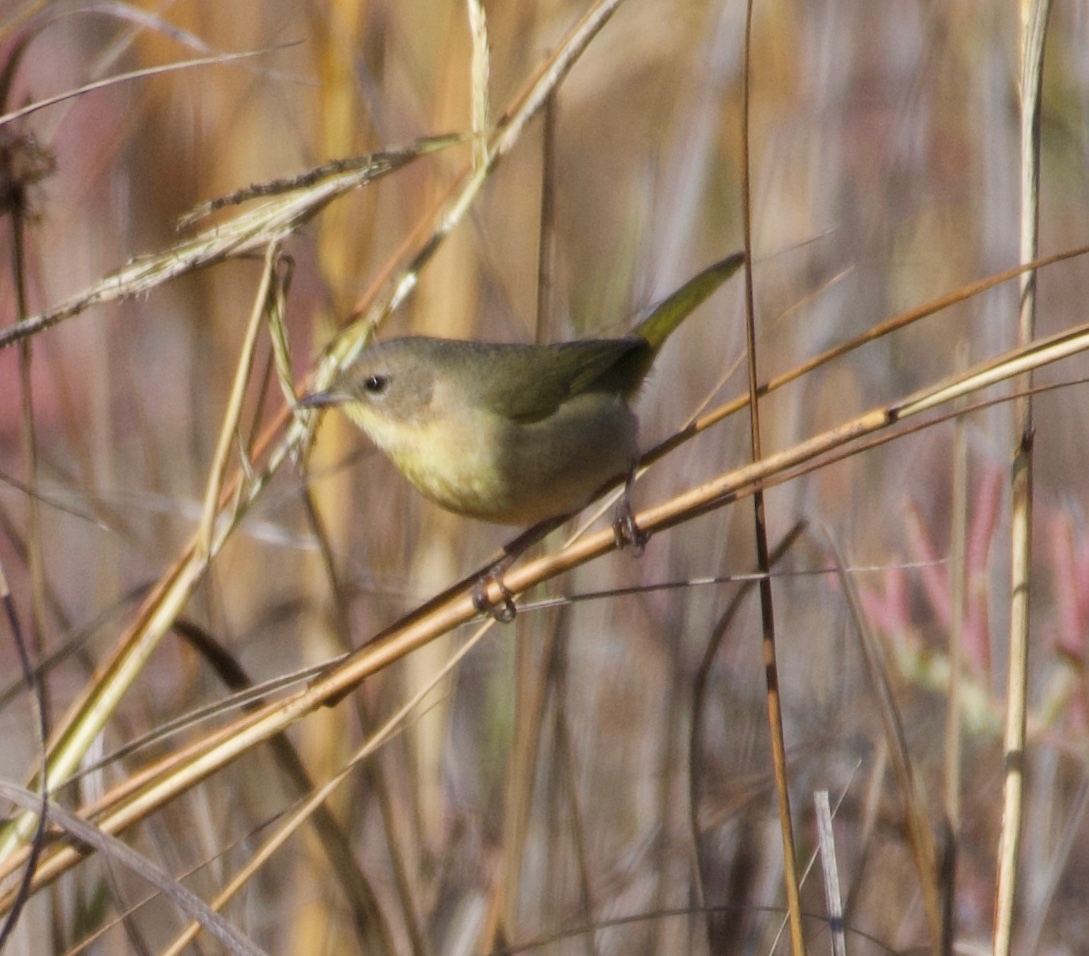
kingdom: Animalia
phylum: Chordata
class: Aves
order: Passeriformes
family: Parulidae
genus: Geothlypis
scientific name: Geothlypis trichas
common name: Common yellowthroat
